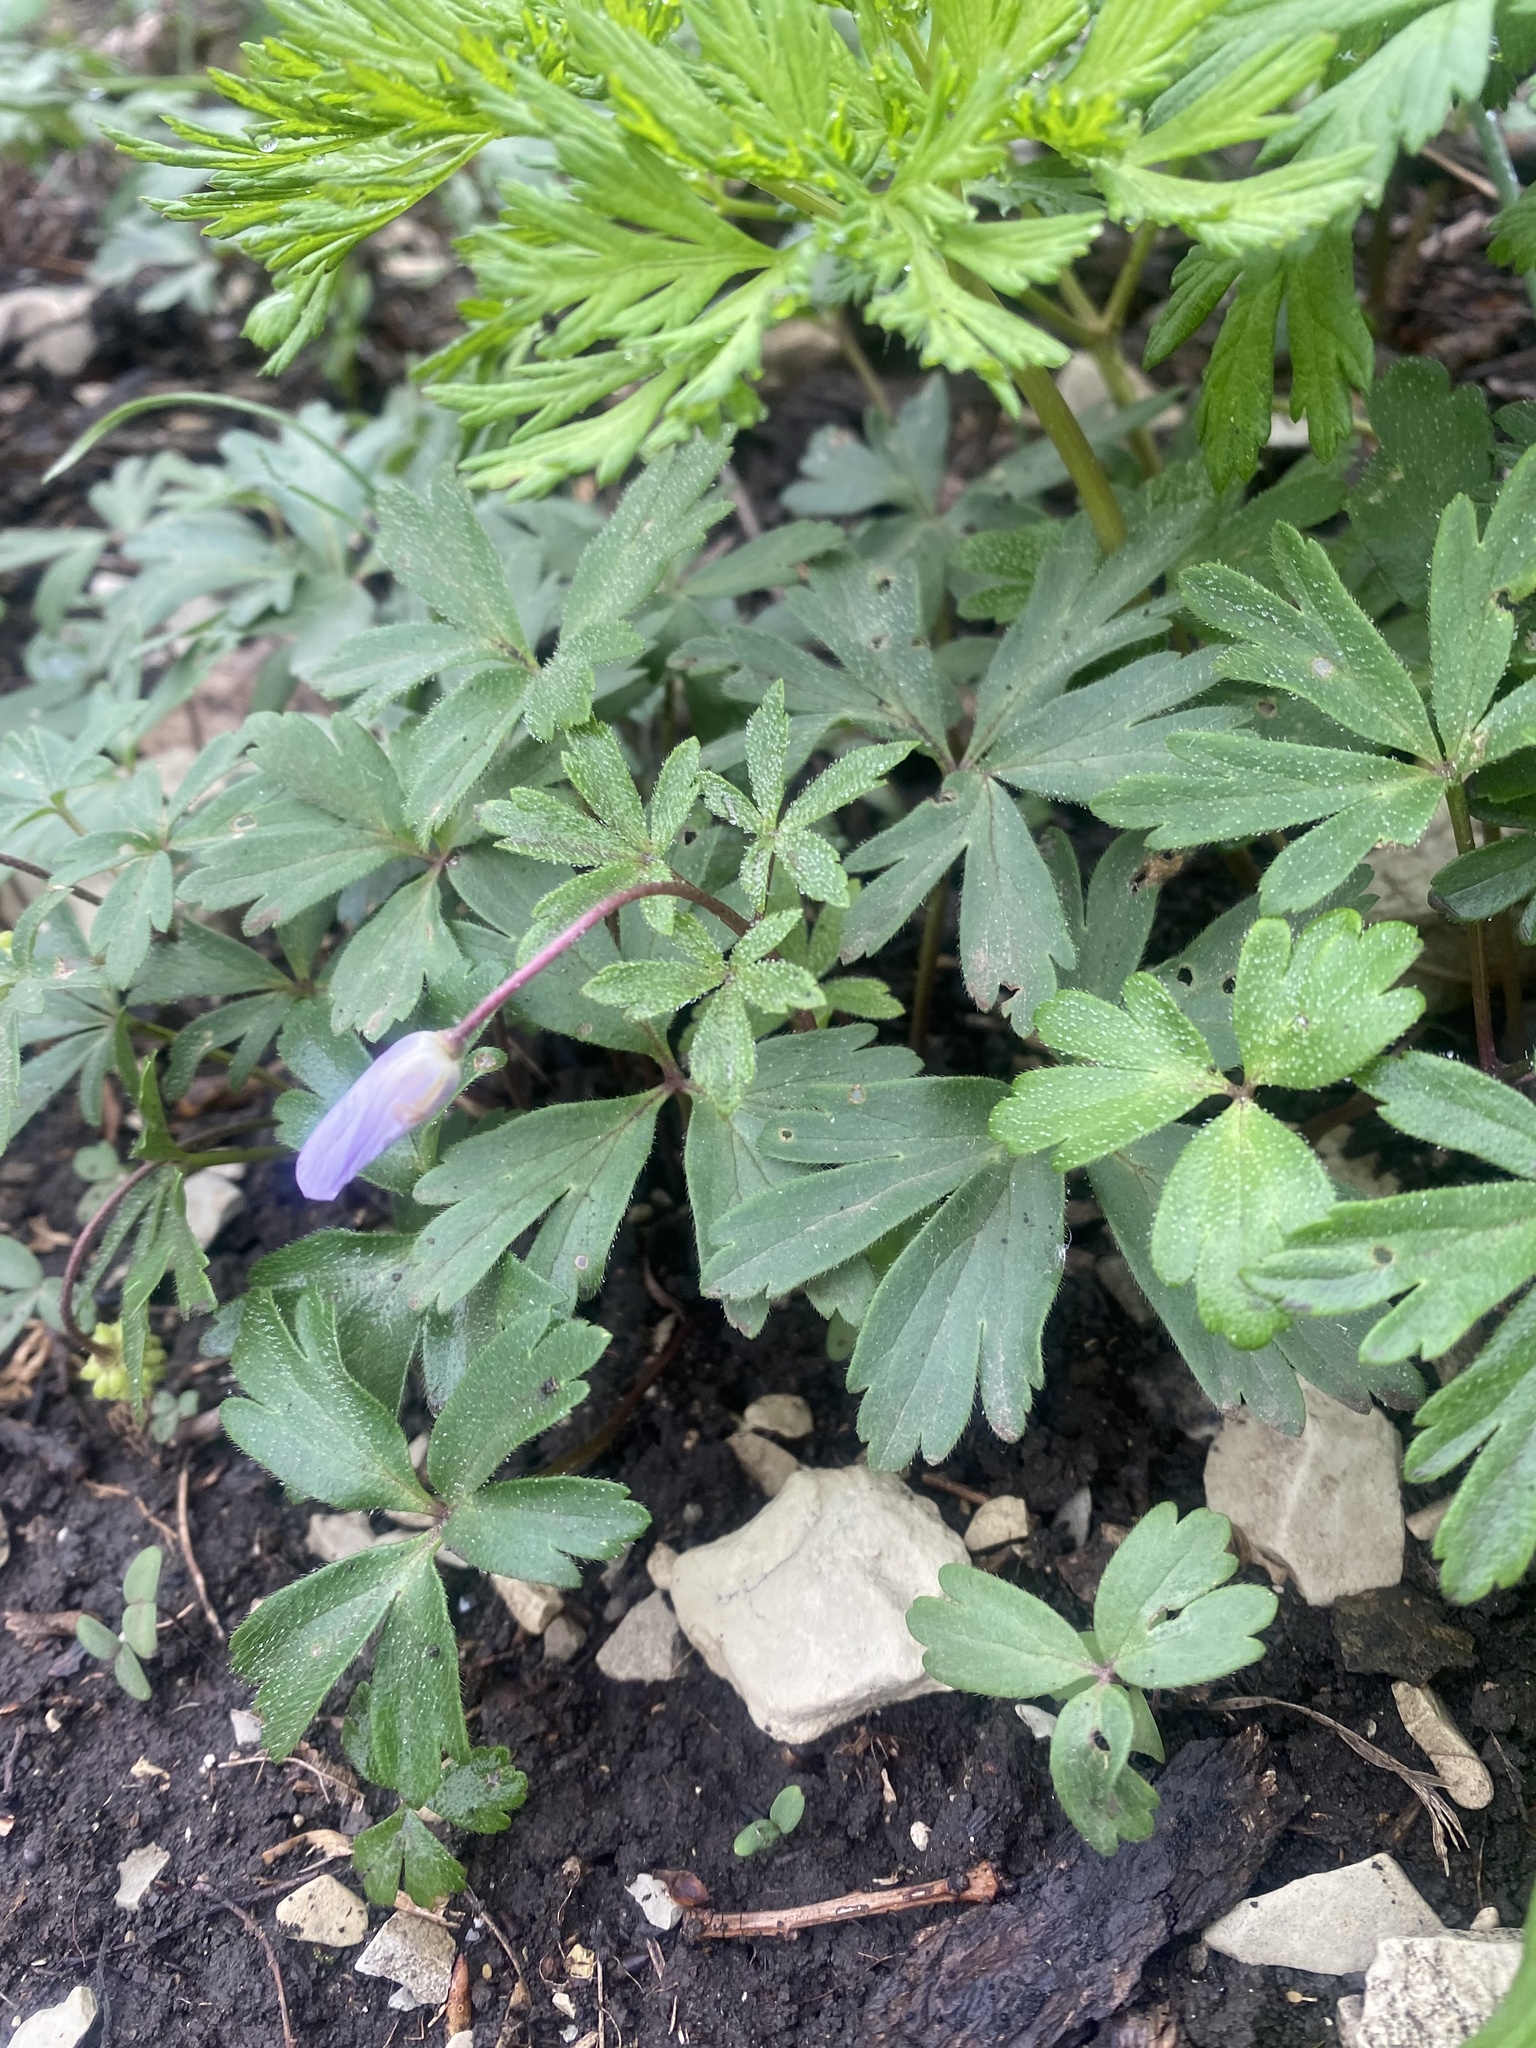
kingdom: Plantae
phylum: Tracheophyta
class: Magnoliopsida
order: Ranunculales
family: Ranunculaceae
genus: Anemone
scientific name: Anemone blanda
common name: Balkan anemone
